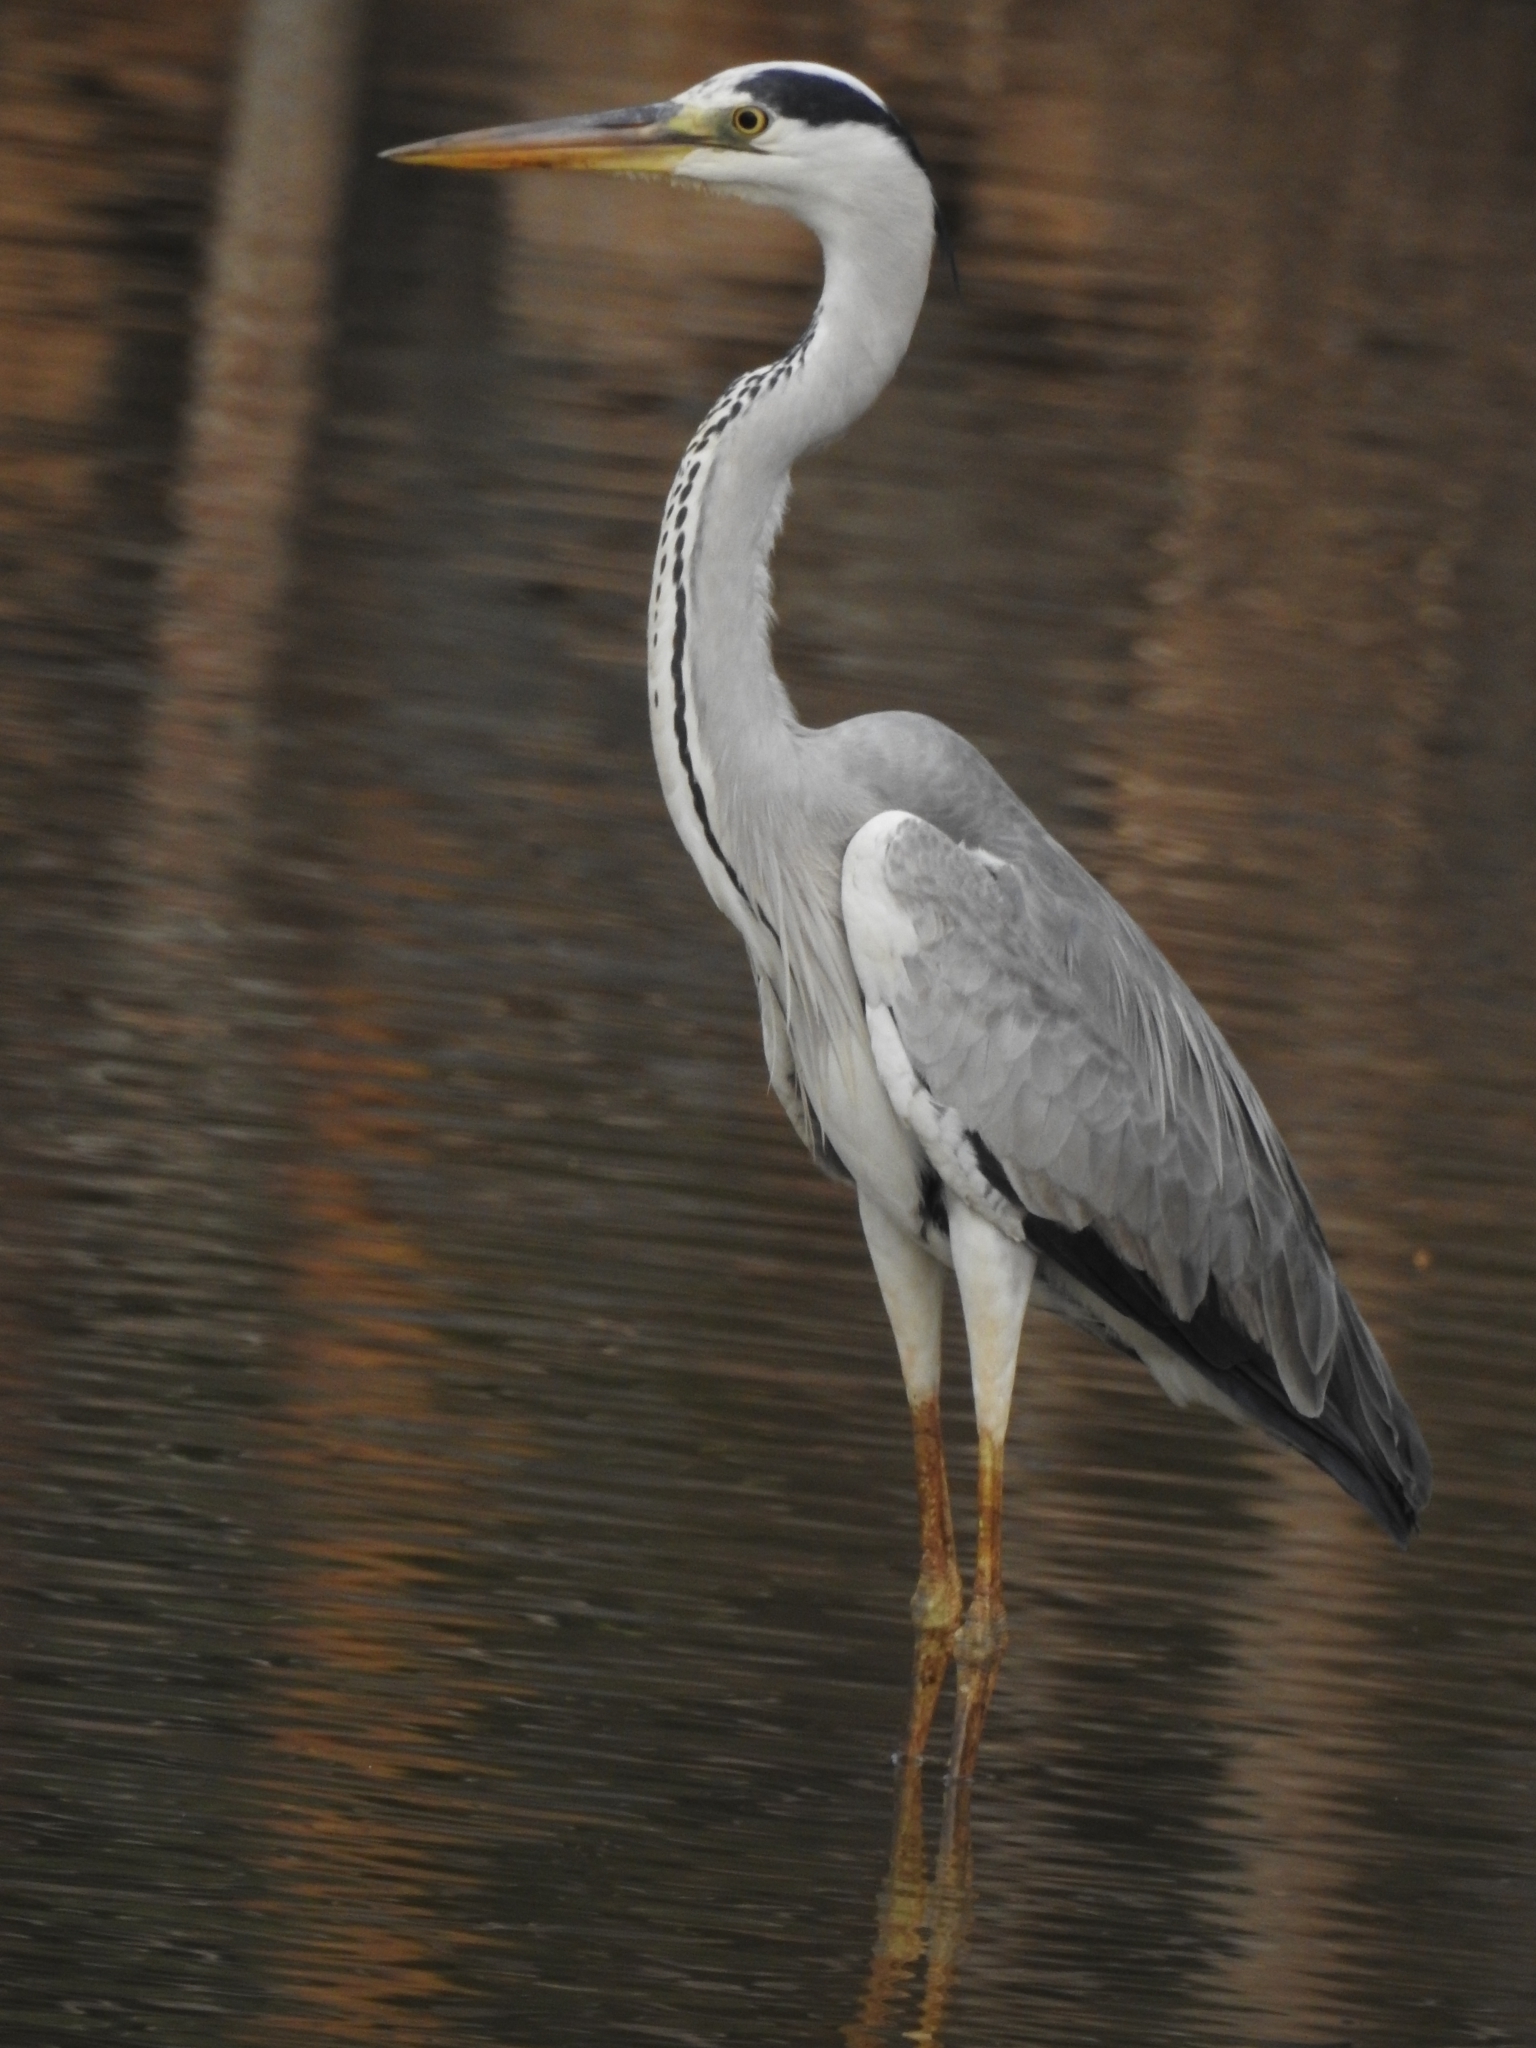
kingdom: Animalia
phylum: Chordata
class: Aves
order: Pelecaniformes
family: Ardeidae
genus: Ardea
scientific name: Ardea cinerea
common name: Grey heron
